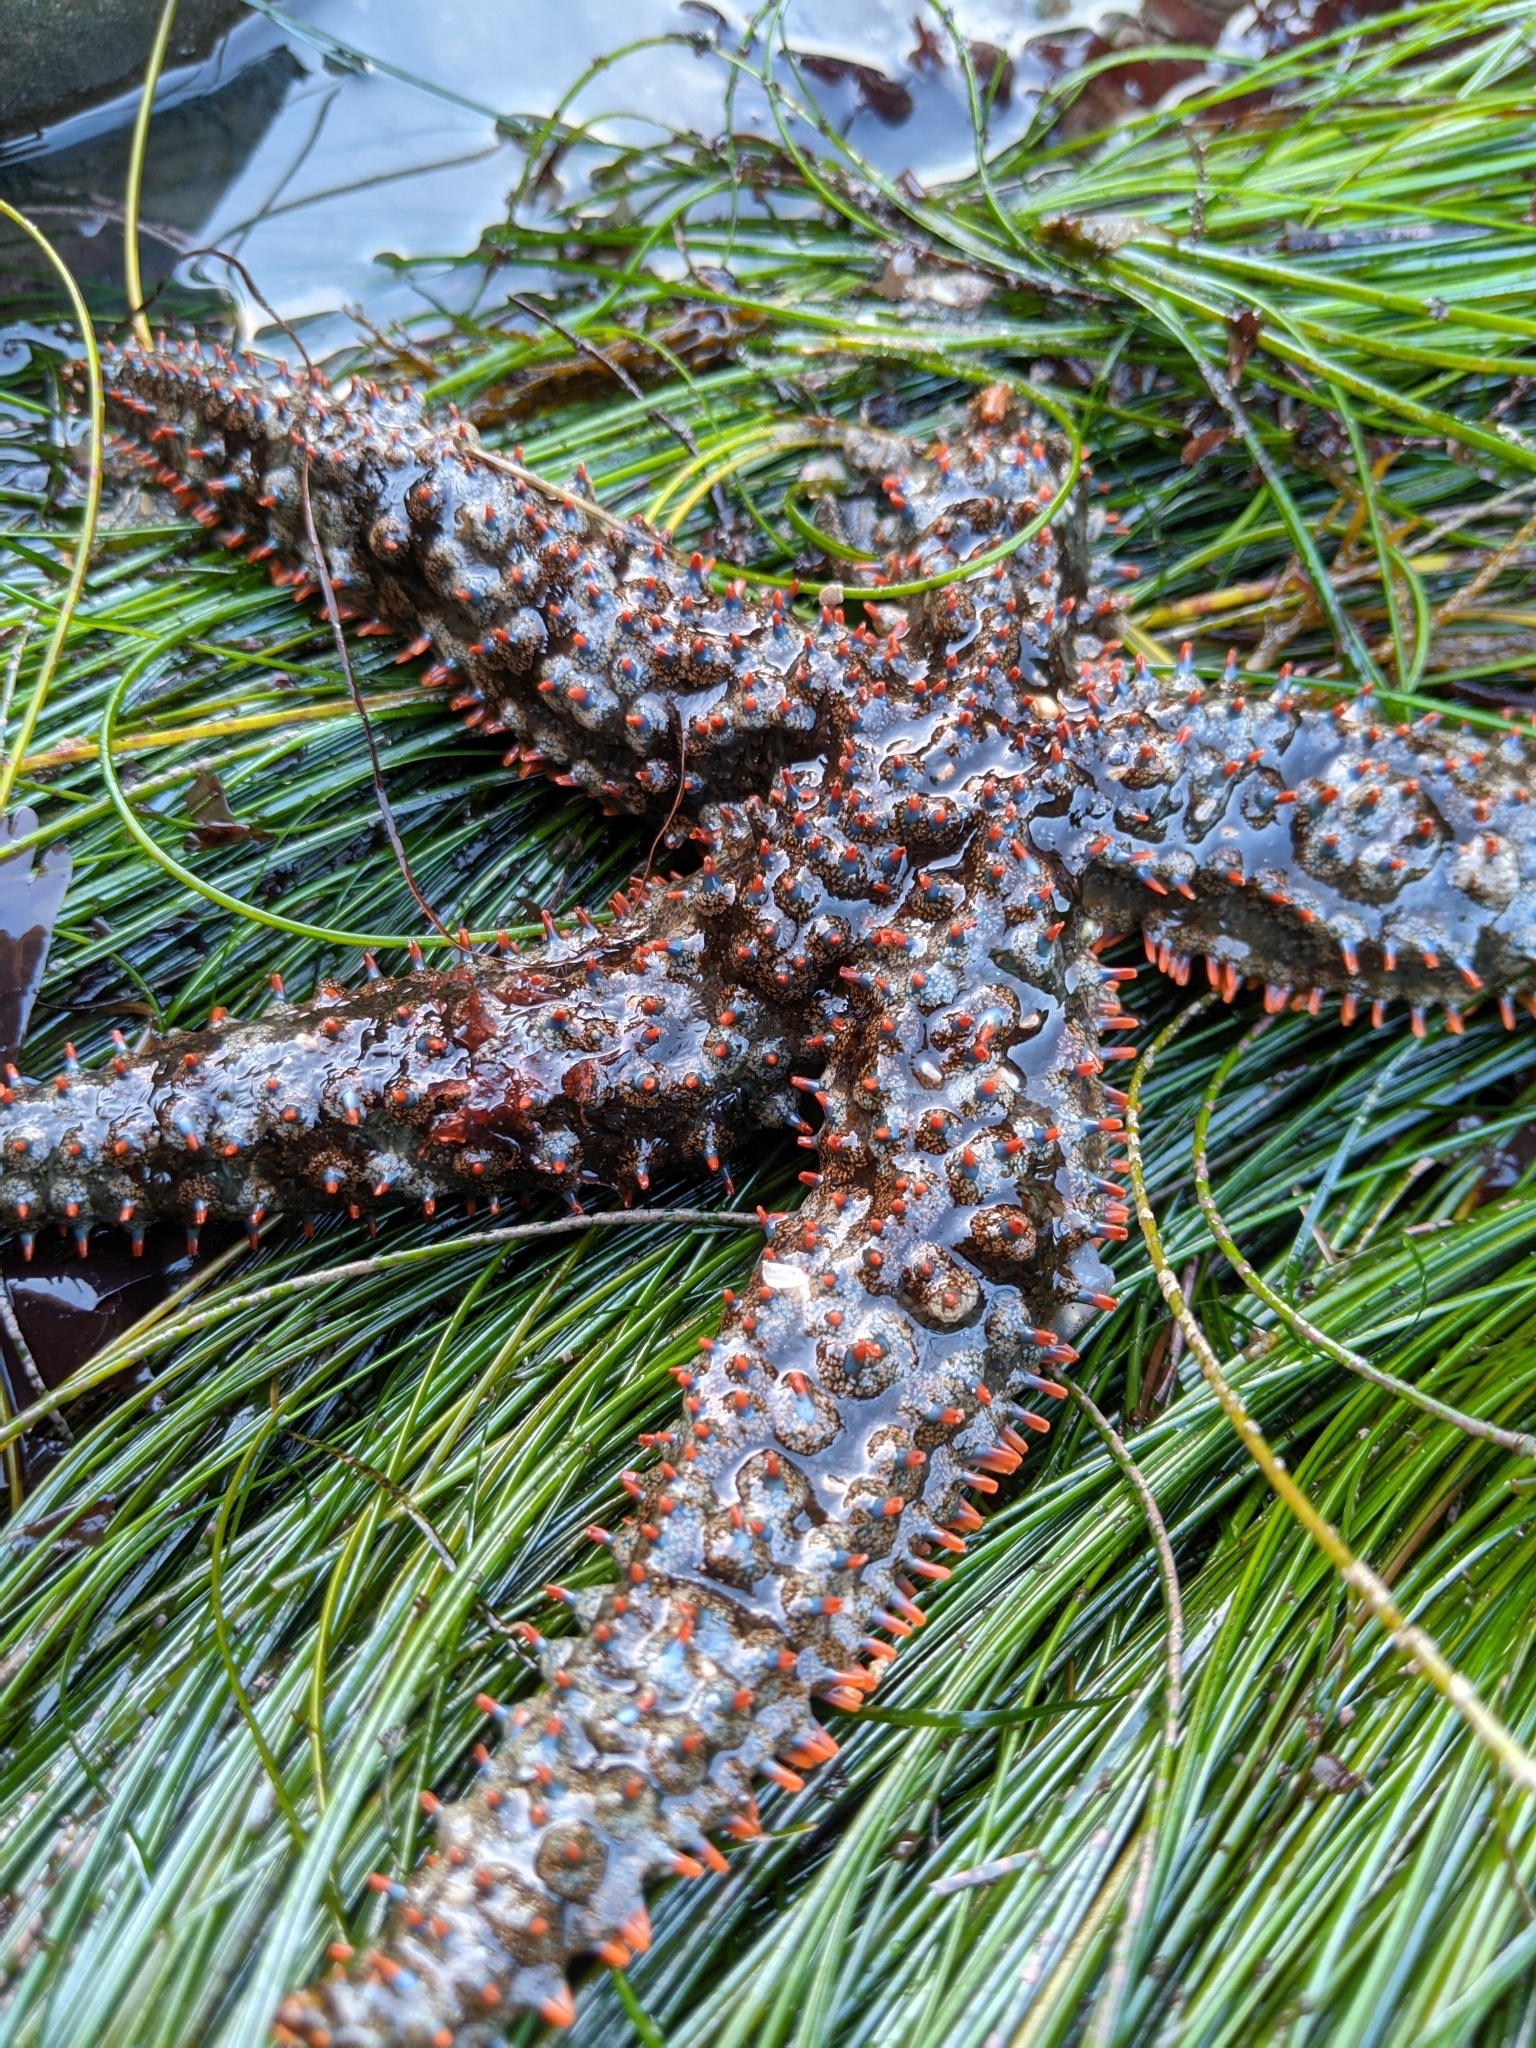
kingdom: Animalia
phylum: Echinodermata
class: Asteroidea
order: Forcipulatida
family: Asteriidae
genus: Astrometis
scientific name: Astrometis sertulifera
